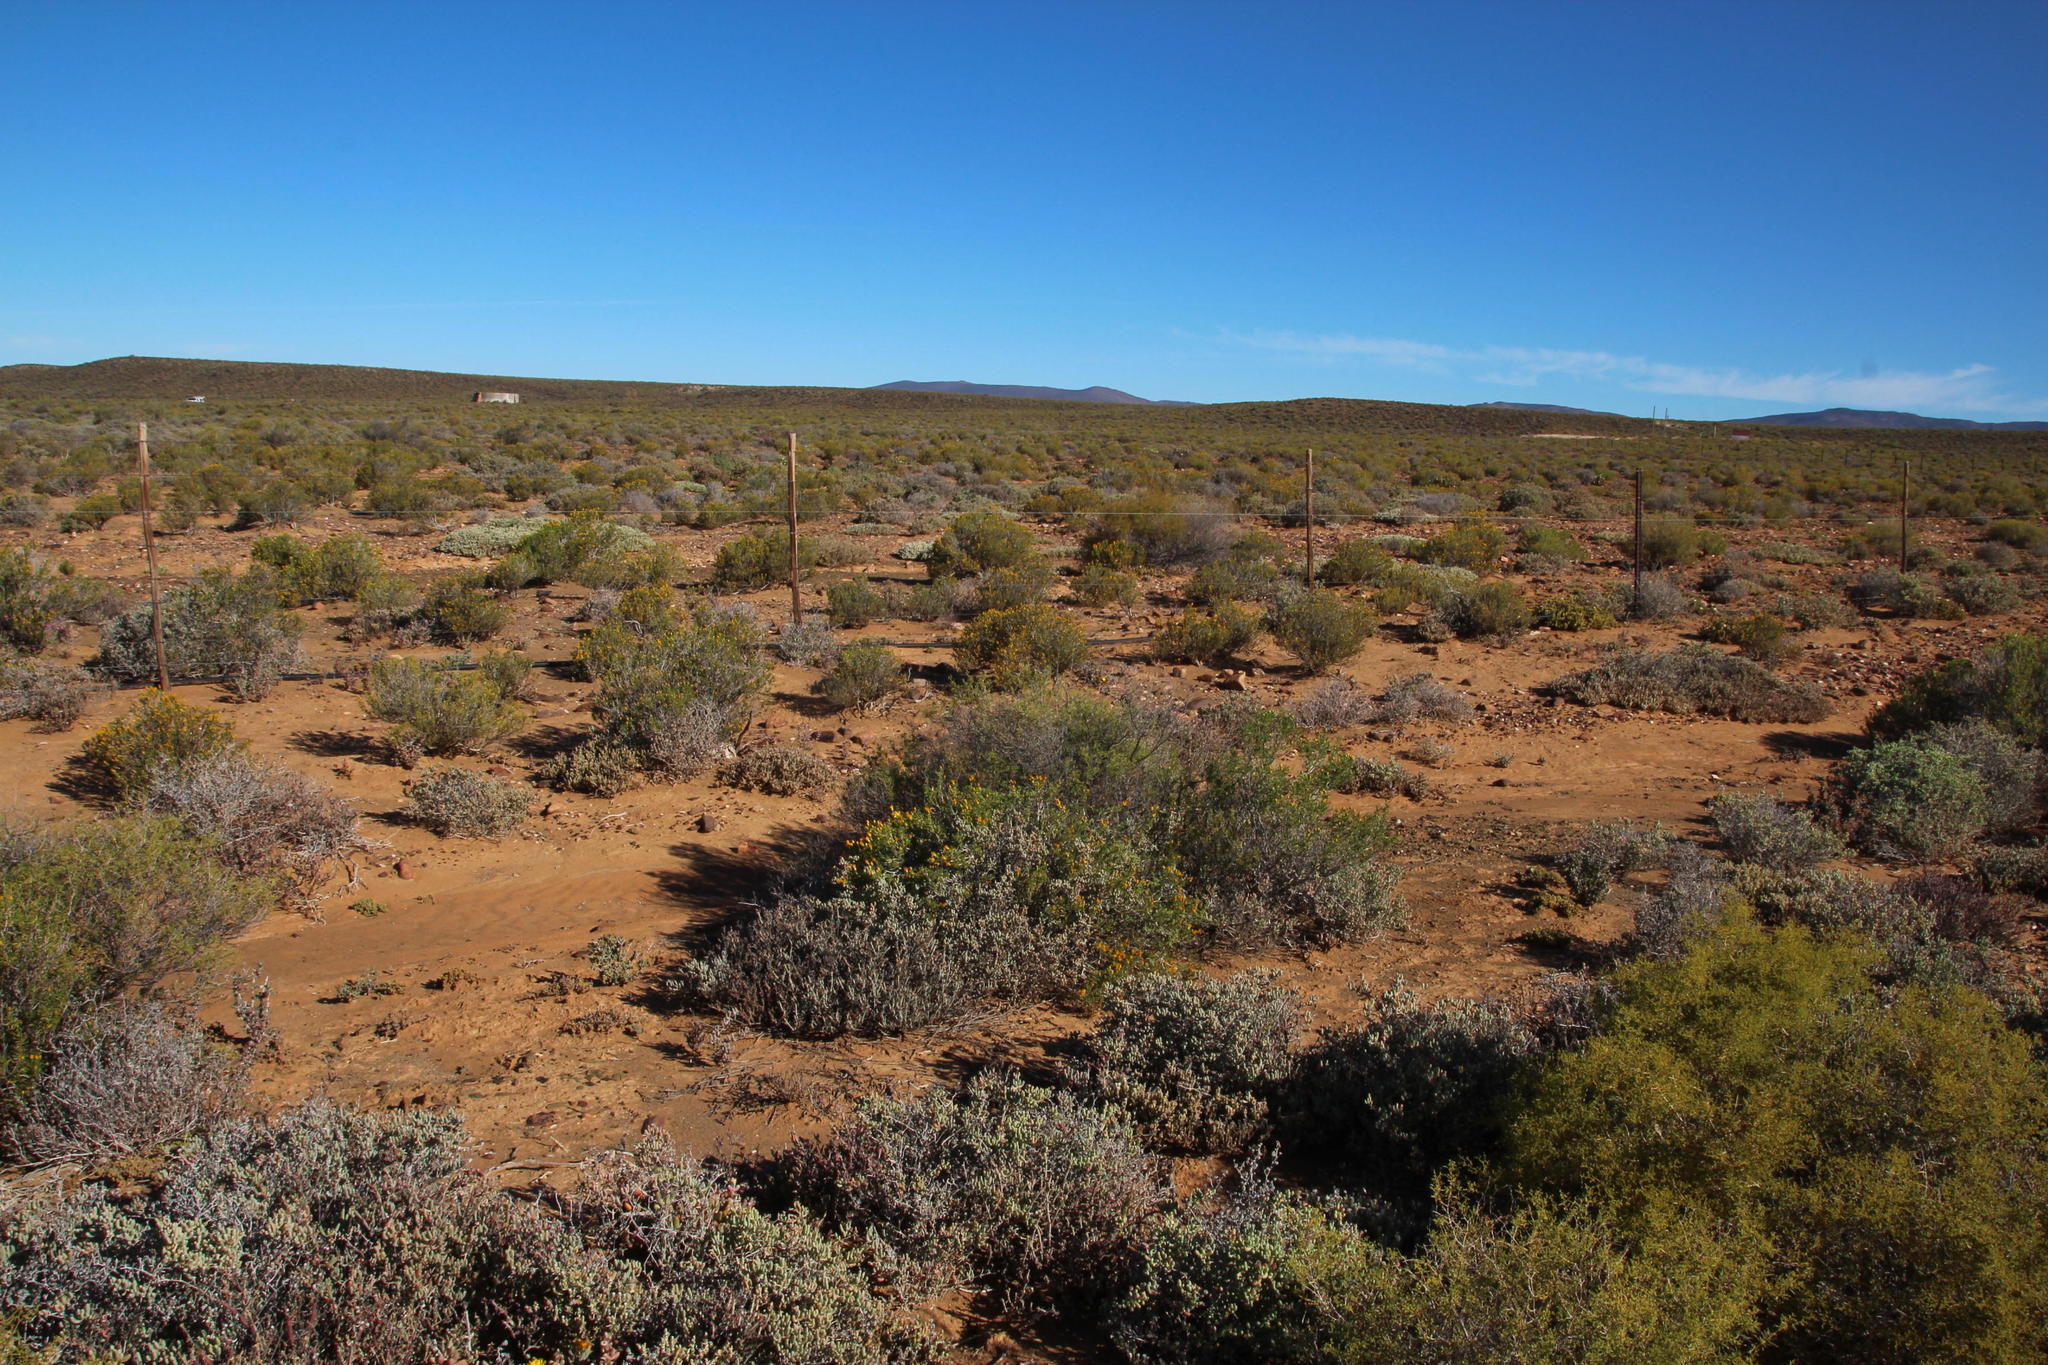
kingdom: Plantae
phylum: Tracheophyta
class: Magnoliopsida
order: Caryophyllales
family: Aizoaceae
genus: Aizoon
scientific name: Aizoon africanum
